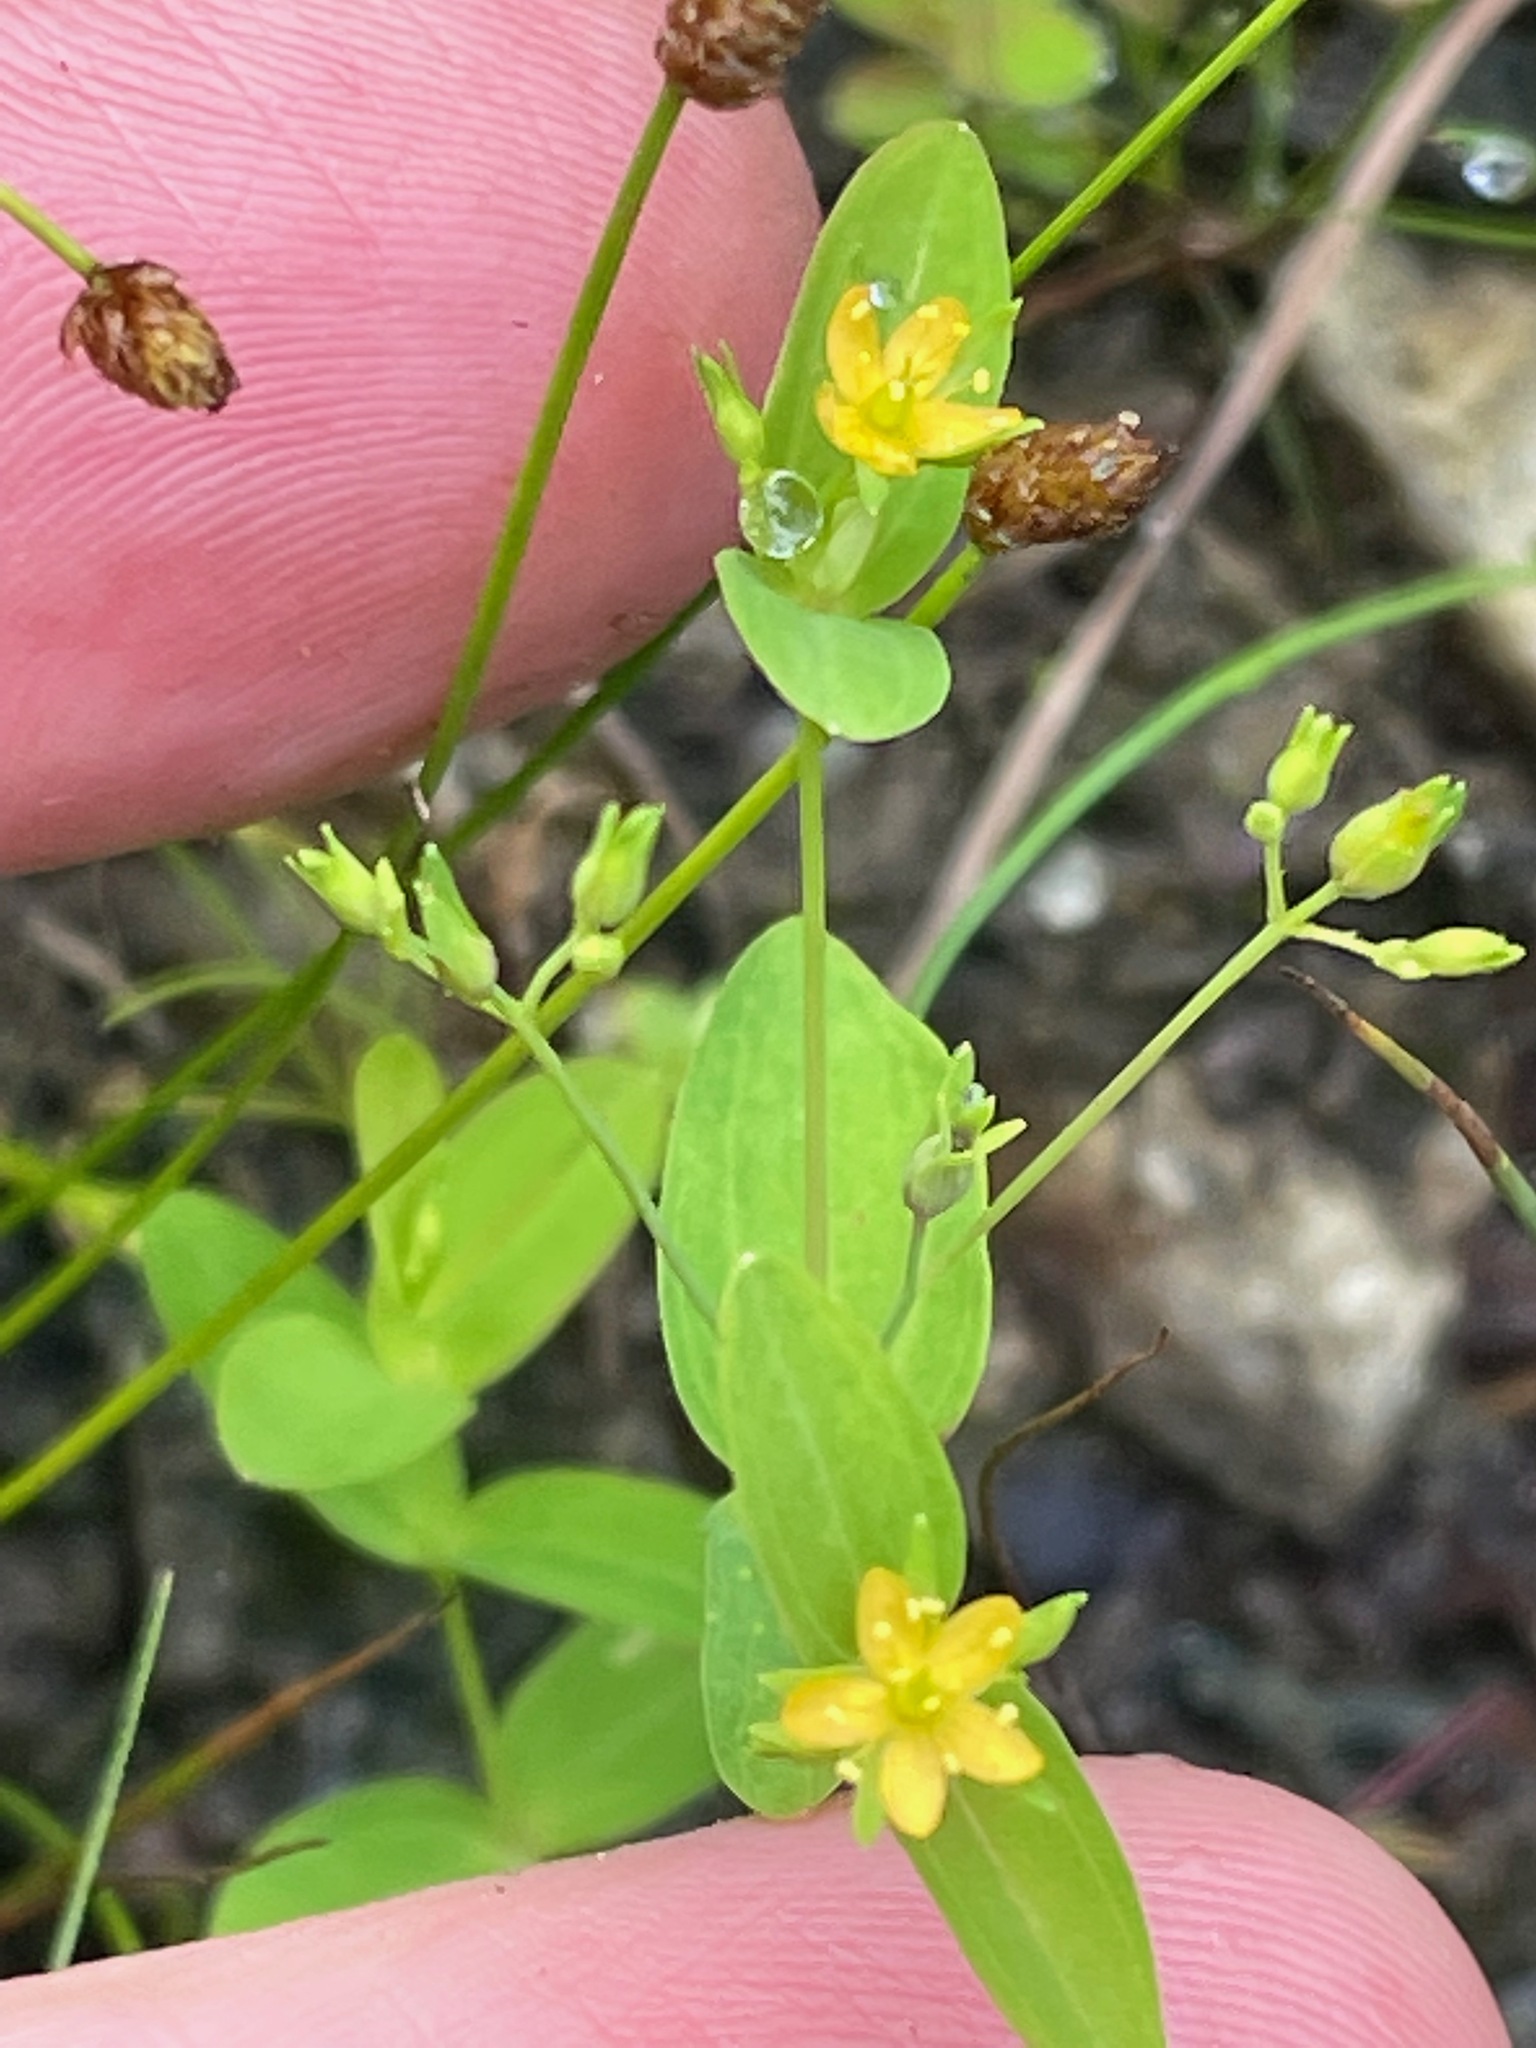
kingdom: Plantae
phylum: Tracheophyta
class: Magnoliopsida
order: Malpighiales
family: Hypericaceae
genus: Hypericum
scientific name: Hypericum mutilum
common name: Dwarf st. john's-wort
